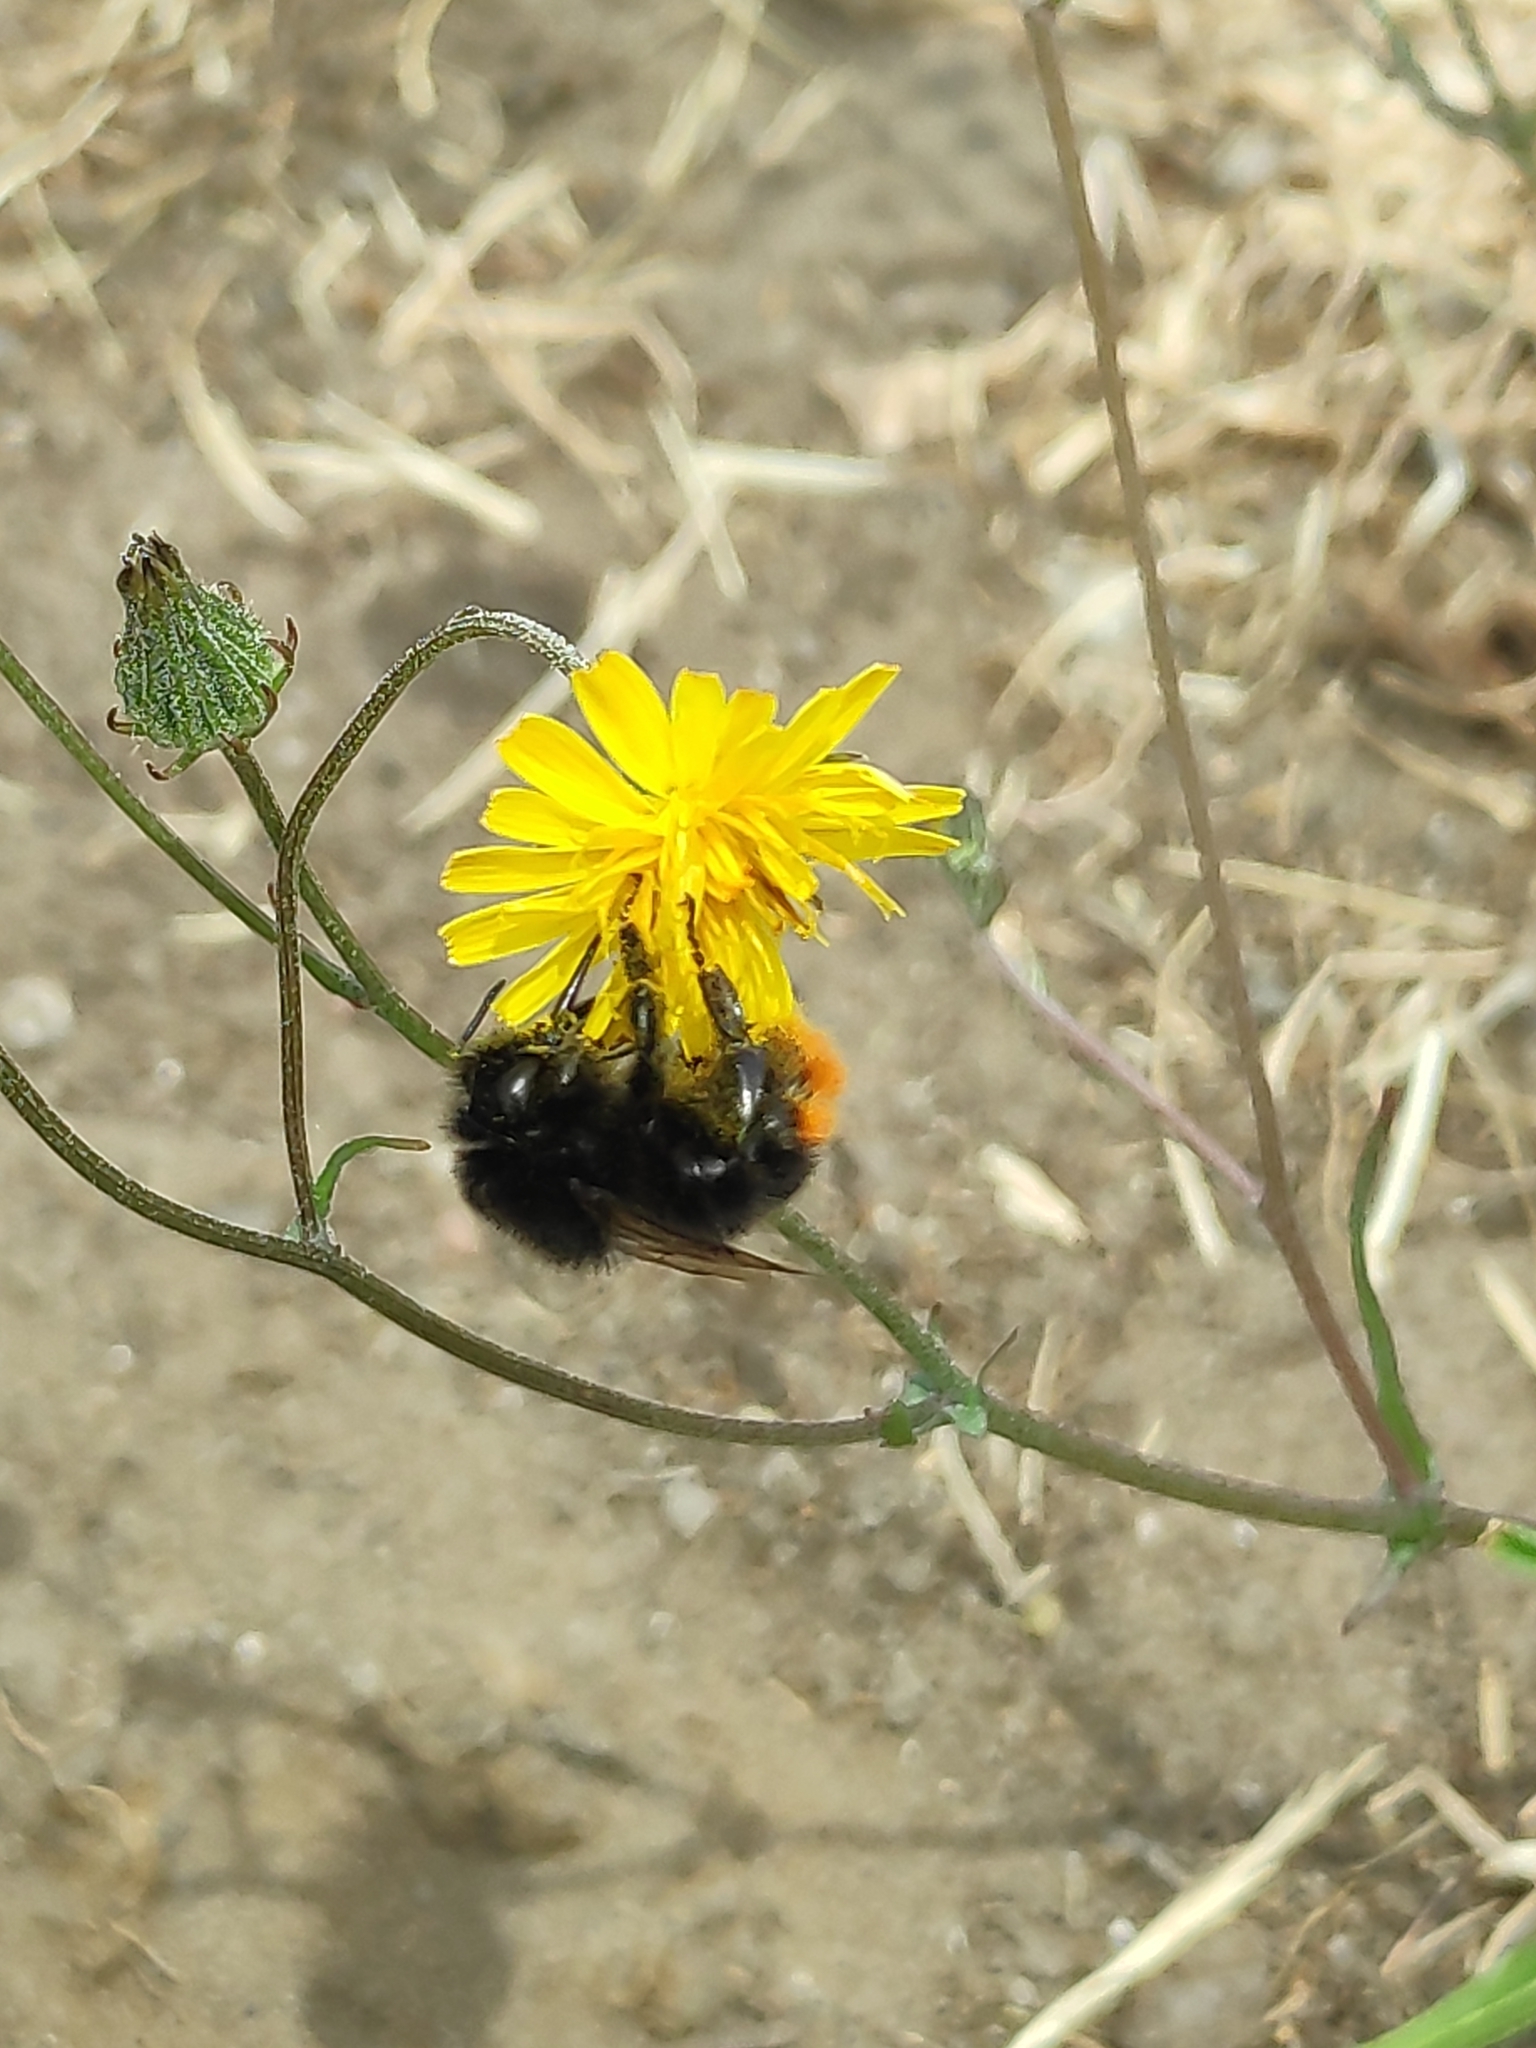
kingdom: Animalia
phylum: Arthropoda
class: Insecta
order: Hymenoptera
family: Apidae
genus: Bombus
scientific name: Bombus lapidarius
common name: Large red-tailed humble-bee
